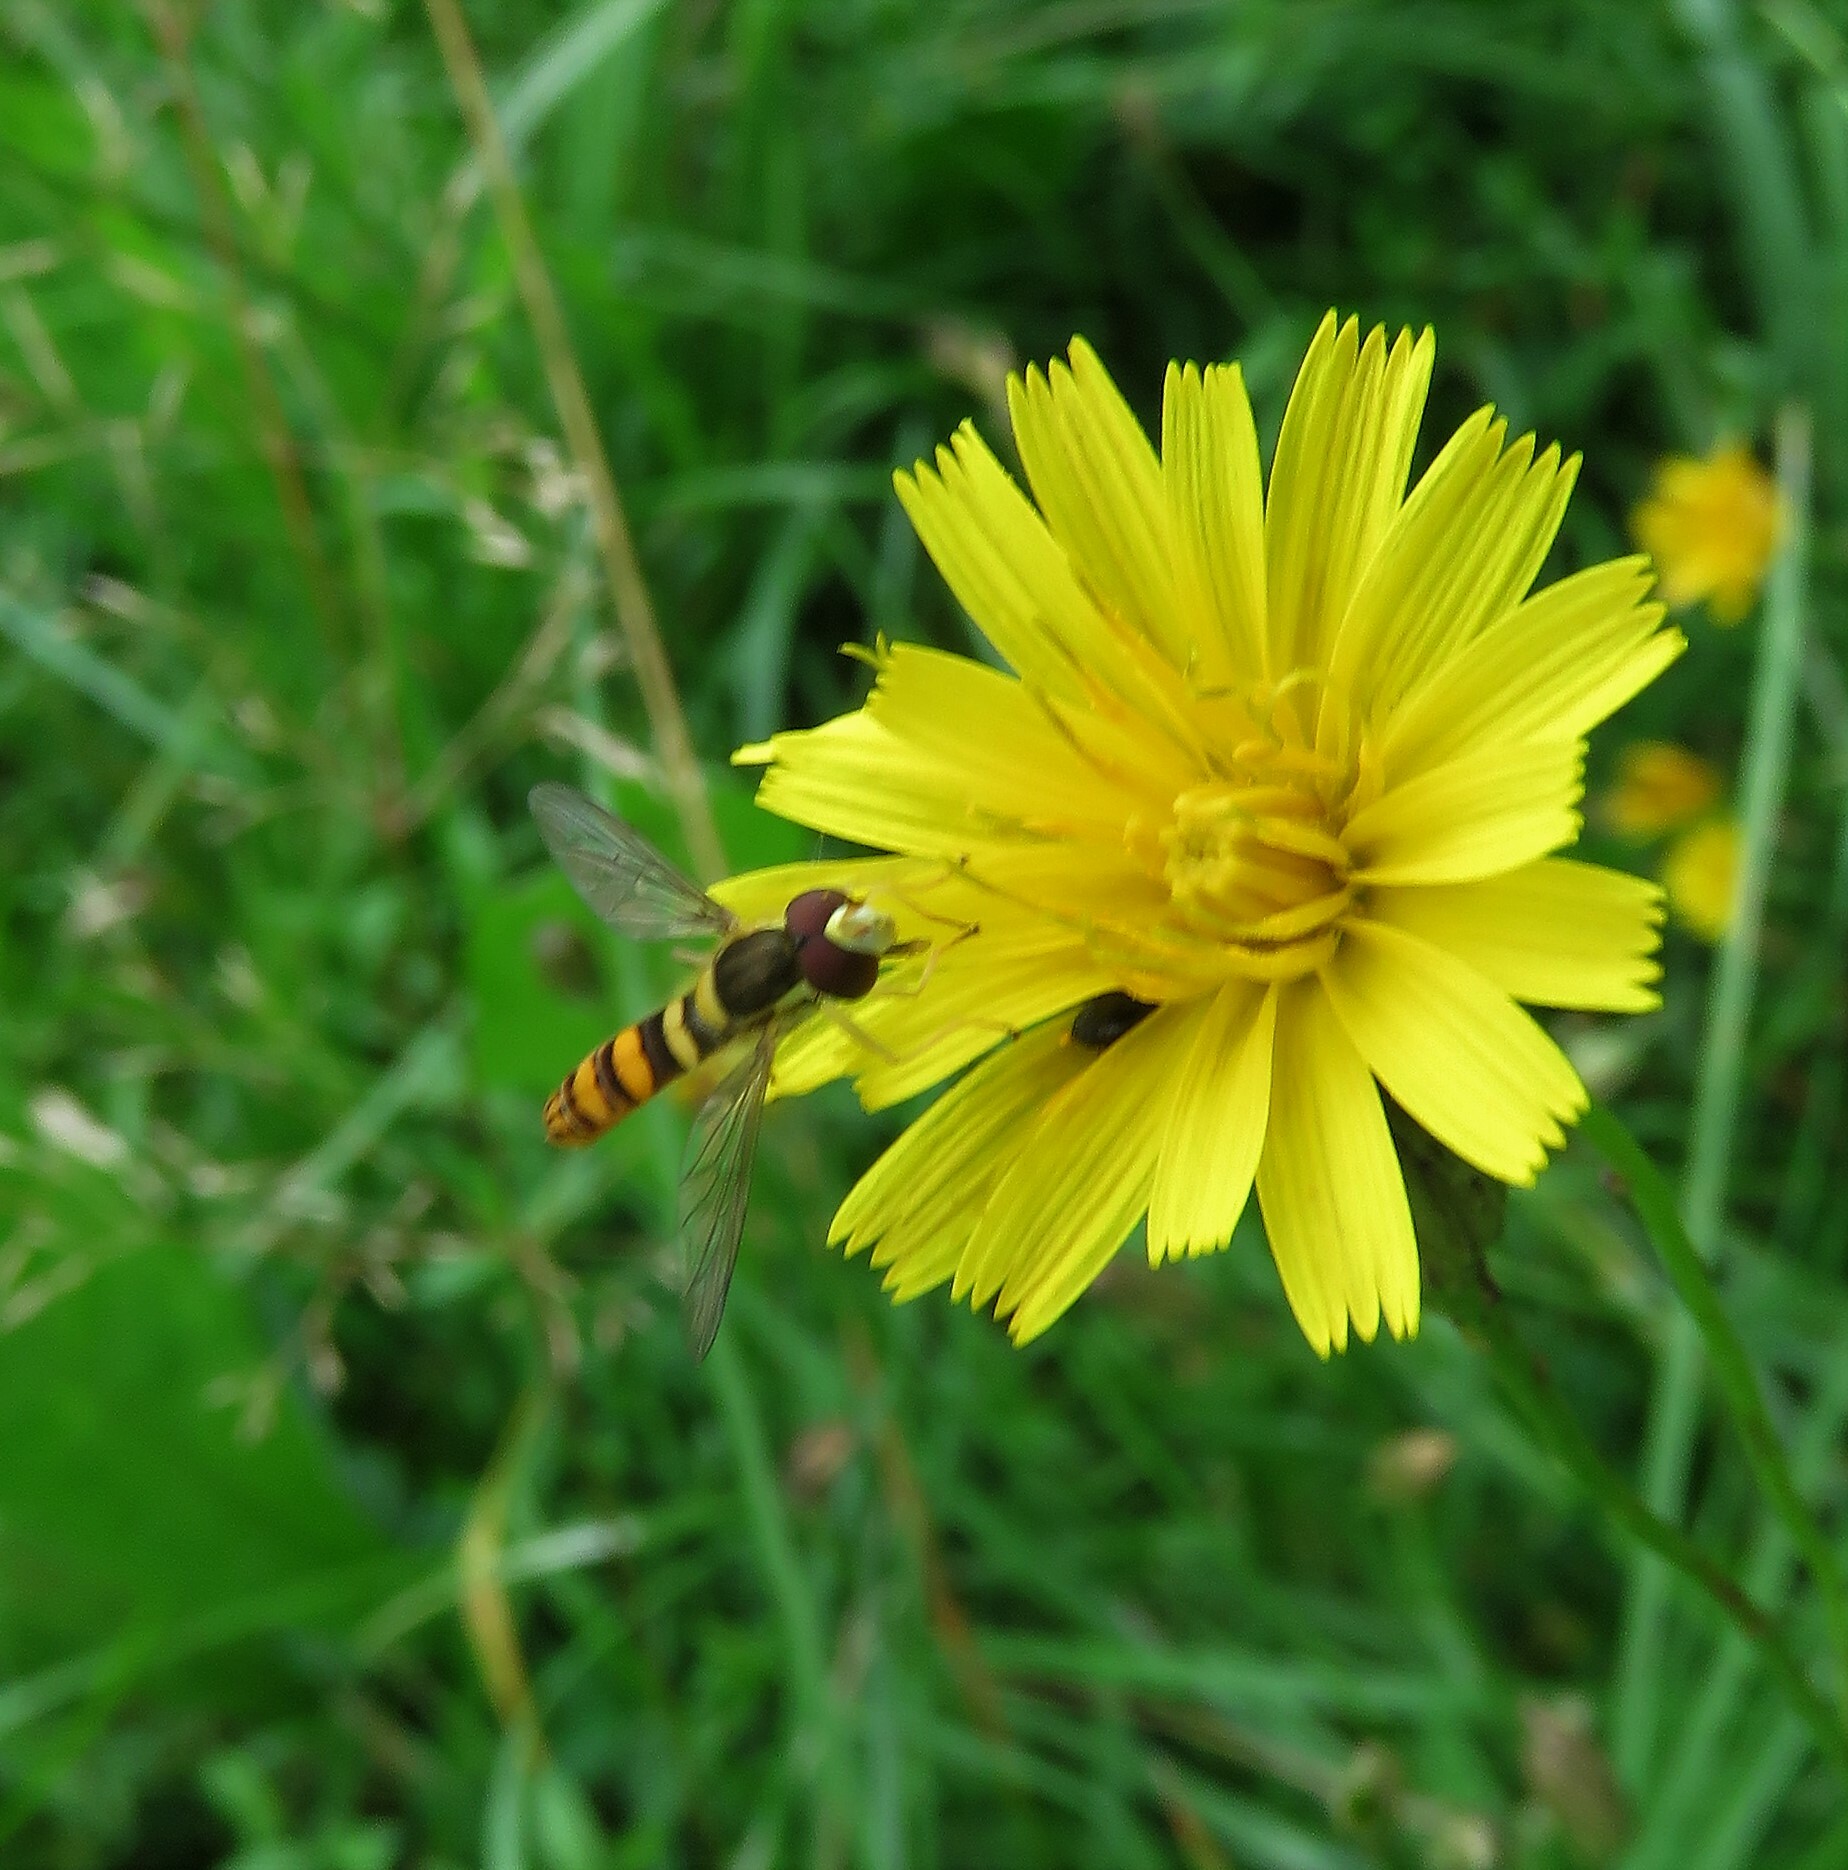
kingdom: Animalia
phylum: Arthropoda
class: Insecta
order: Diptera
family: Syrphidae
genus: Sphaerophoria
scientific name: Sphaerophoria philantha
